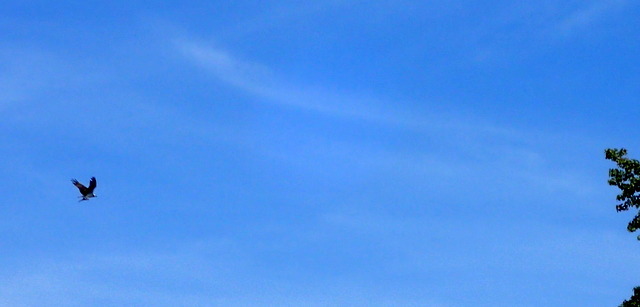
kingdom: Animalia
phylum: Chordata
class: Aves
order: Accipitriformes
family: Pandionidae
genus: Pandion
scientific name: Pandion haliaetus
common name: Osprey
